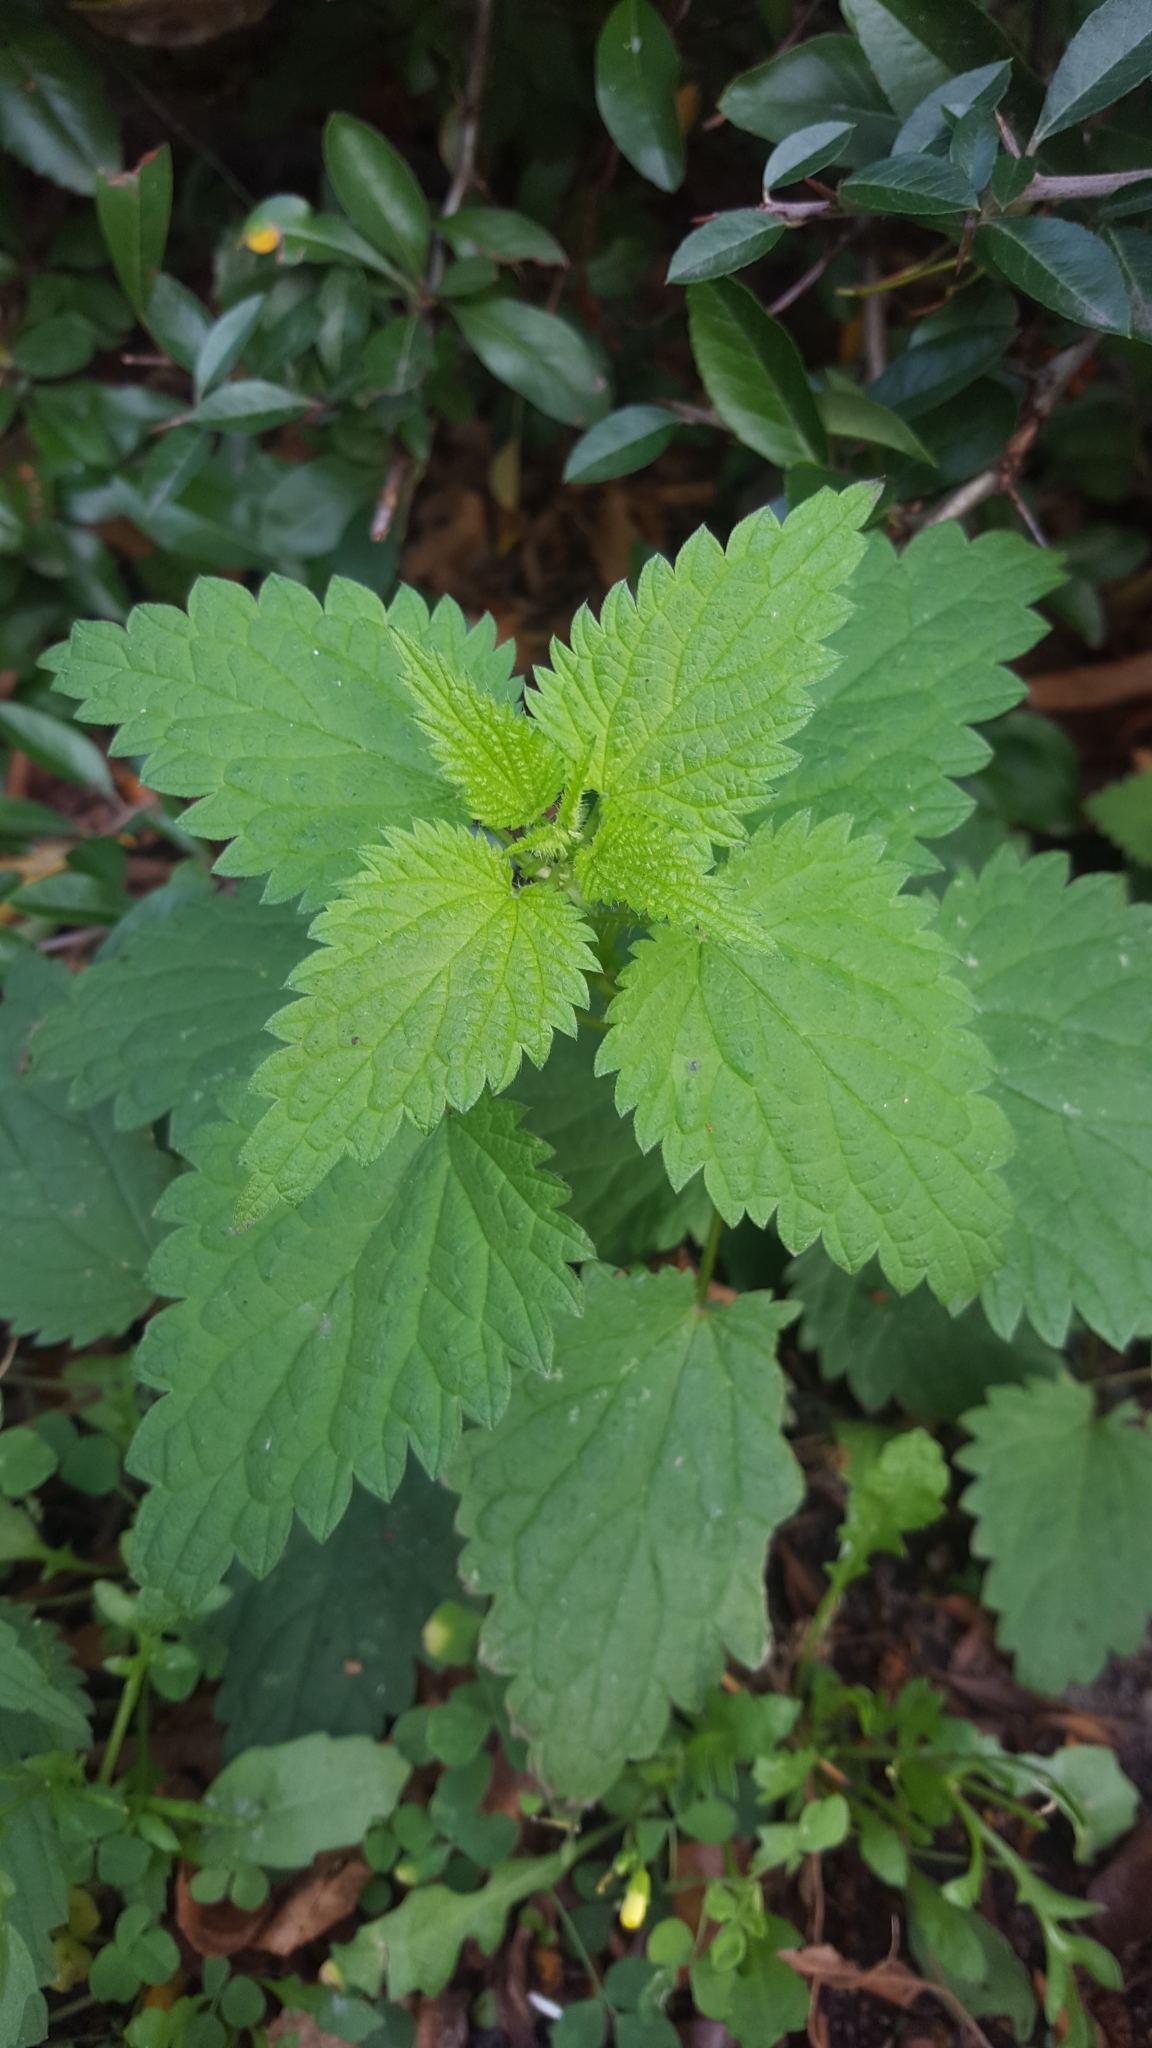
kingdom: Plantae
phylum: Tracheophyta
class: Magnoliopsida
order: Rosales
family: Urticaceae
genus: Urtica
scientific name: Urtica dioica
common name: Common nettle
